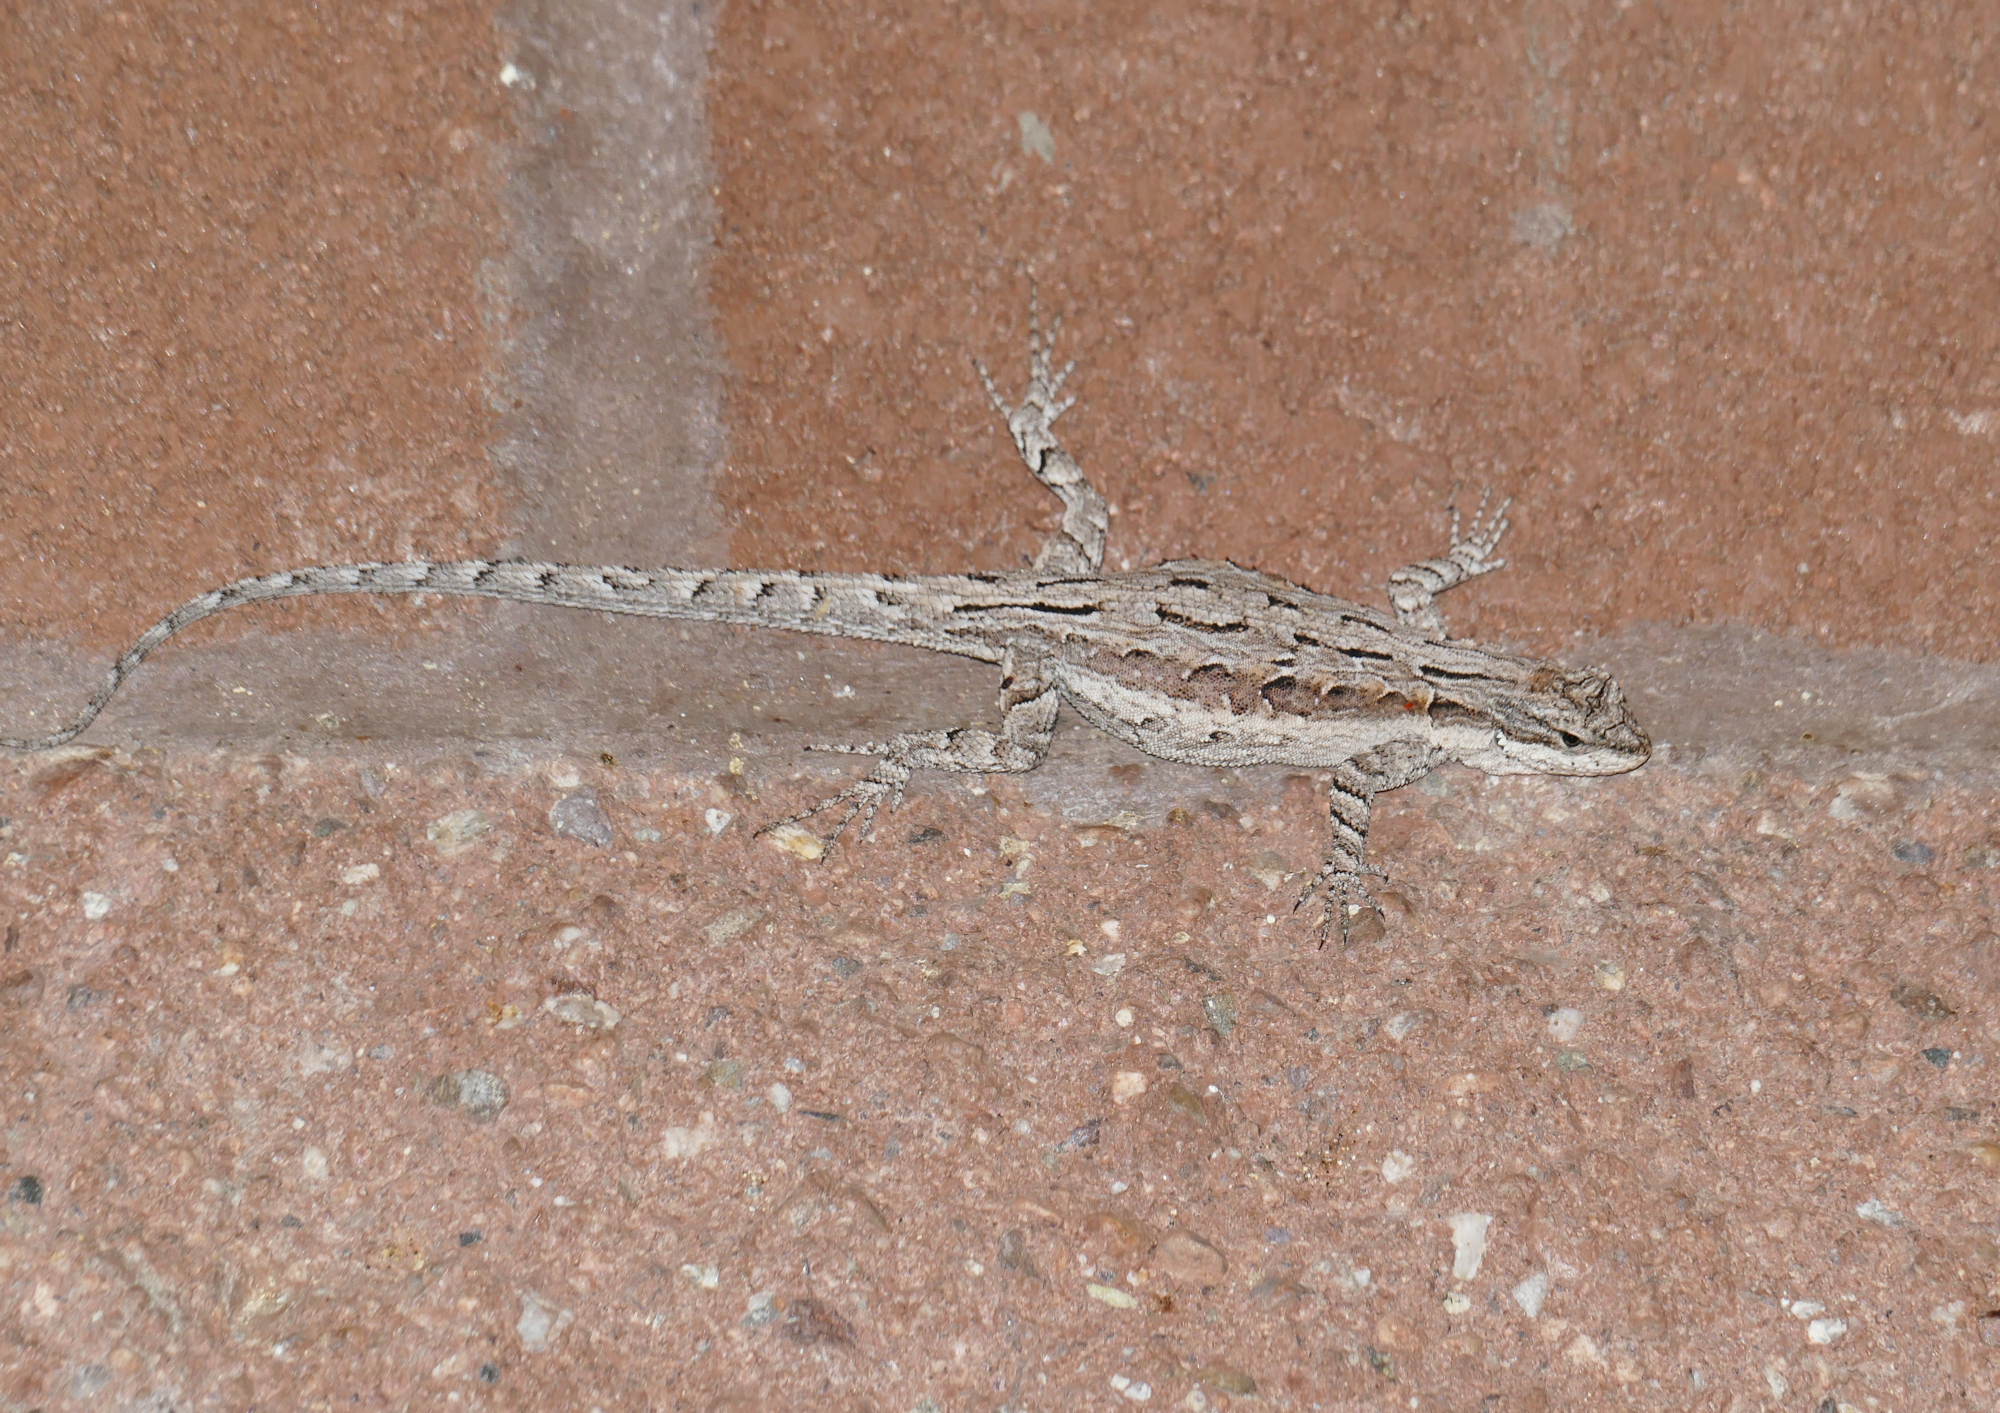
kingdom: Animalia
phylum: Chordata
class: Squamata
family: Phrynosomatidae
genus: Urosaurus
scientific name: Urosaurus ornatus
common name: Ornate tree lizard
